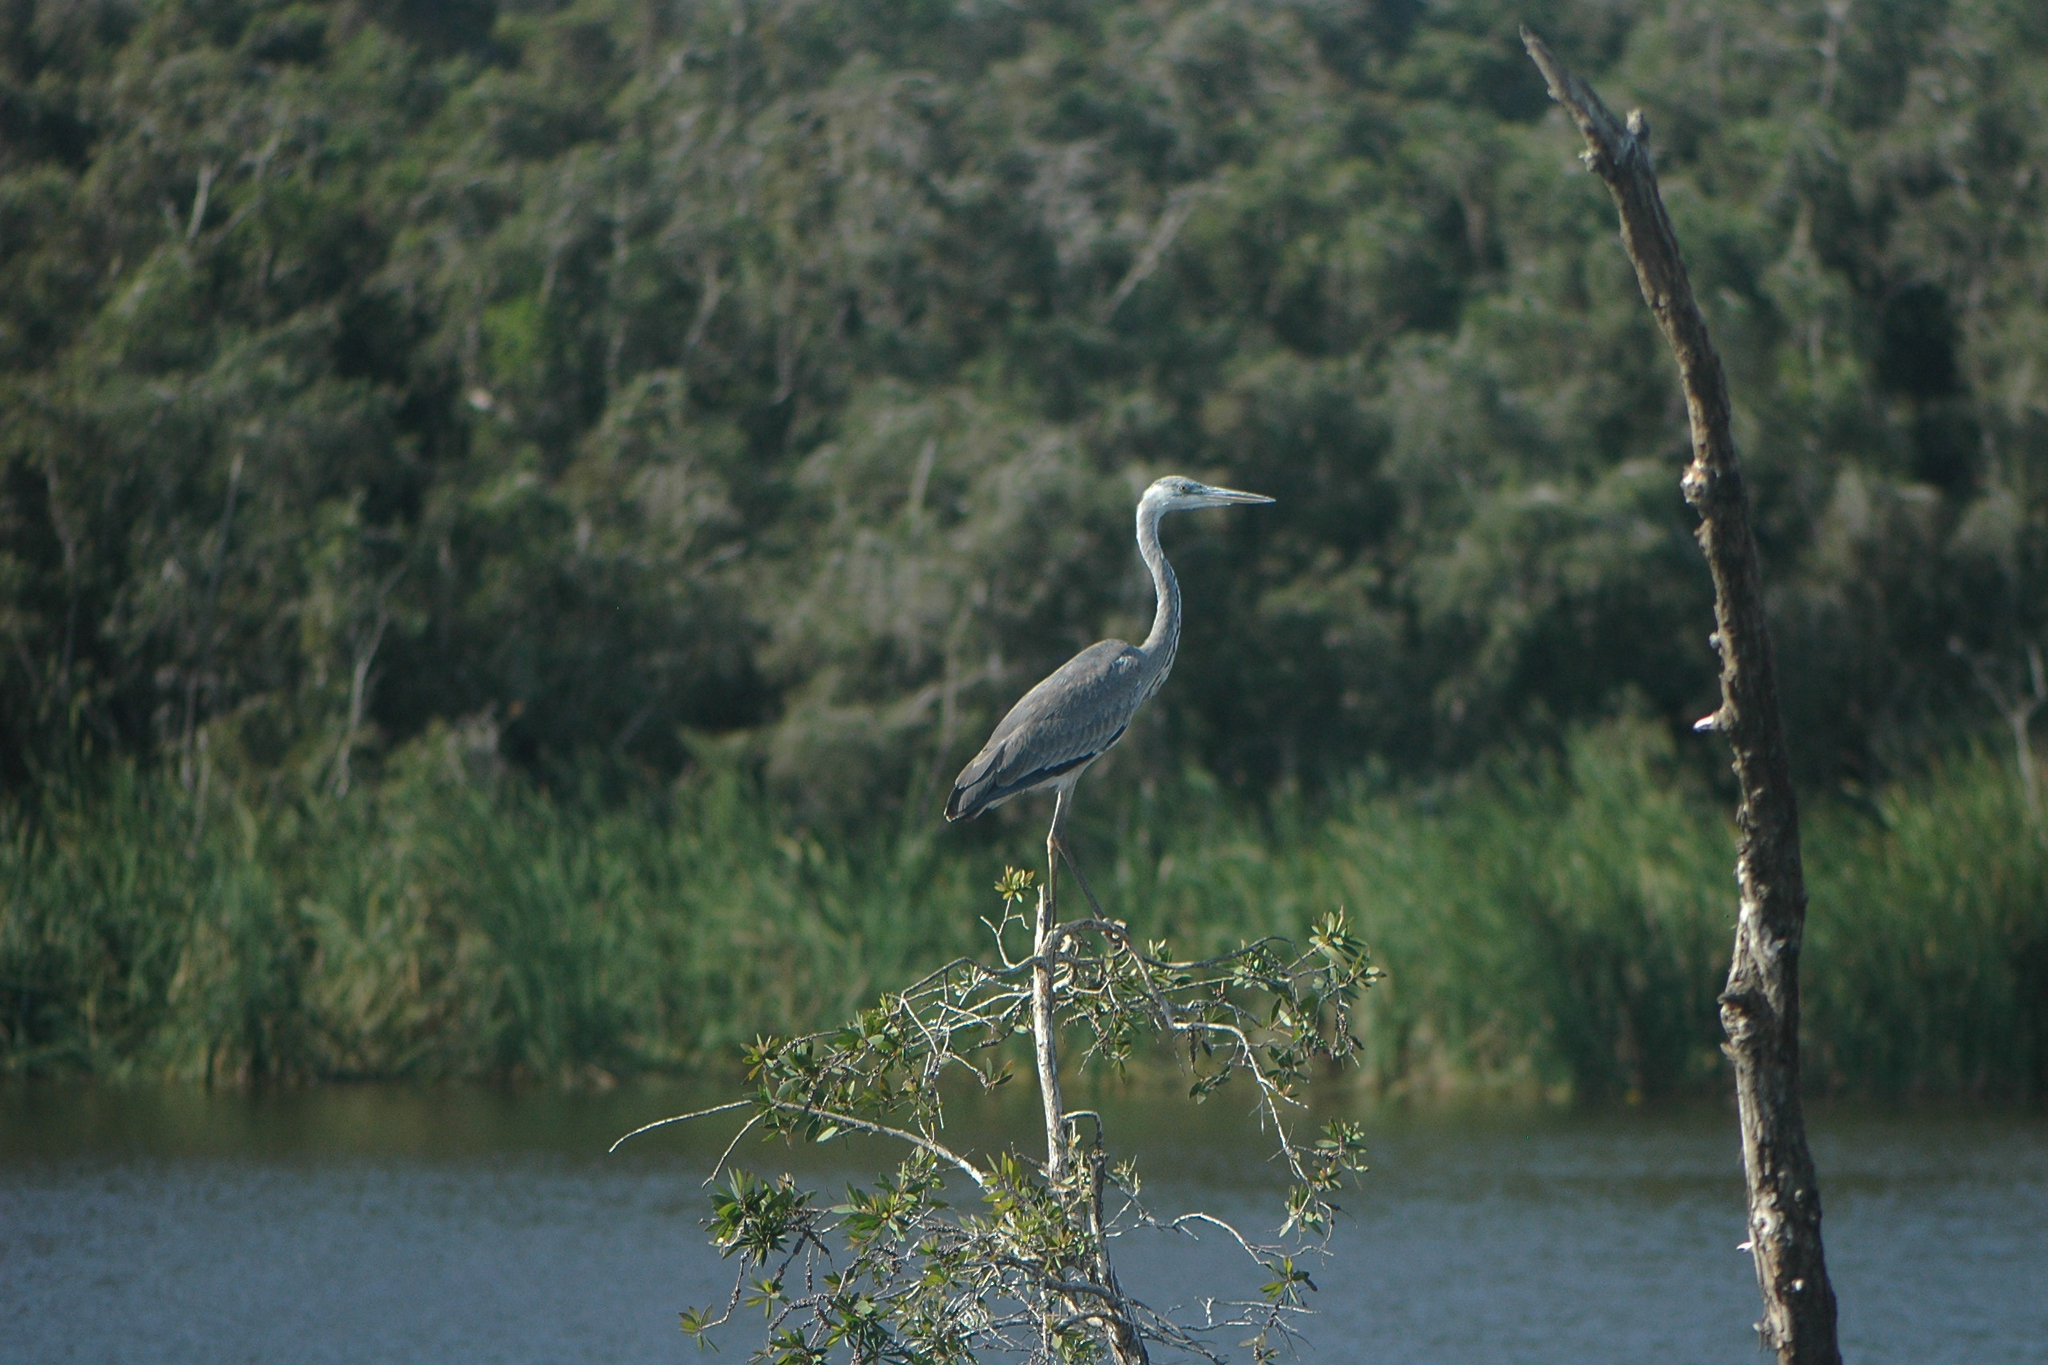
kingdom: Animalia
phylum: Chordata
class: Aves
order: Pelecaniformes
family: Ardeidae
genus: Ardea
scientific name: Ardea cinerea
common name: Grey heron
